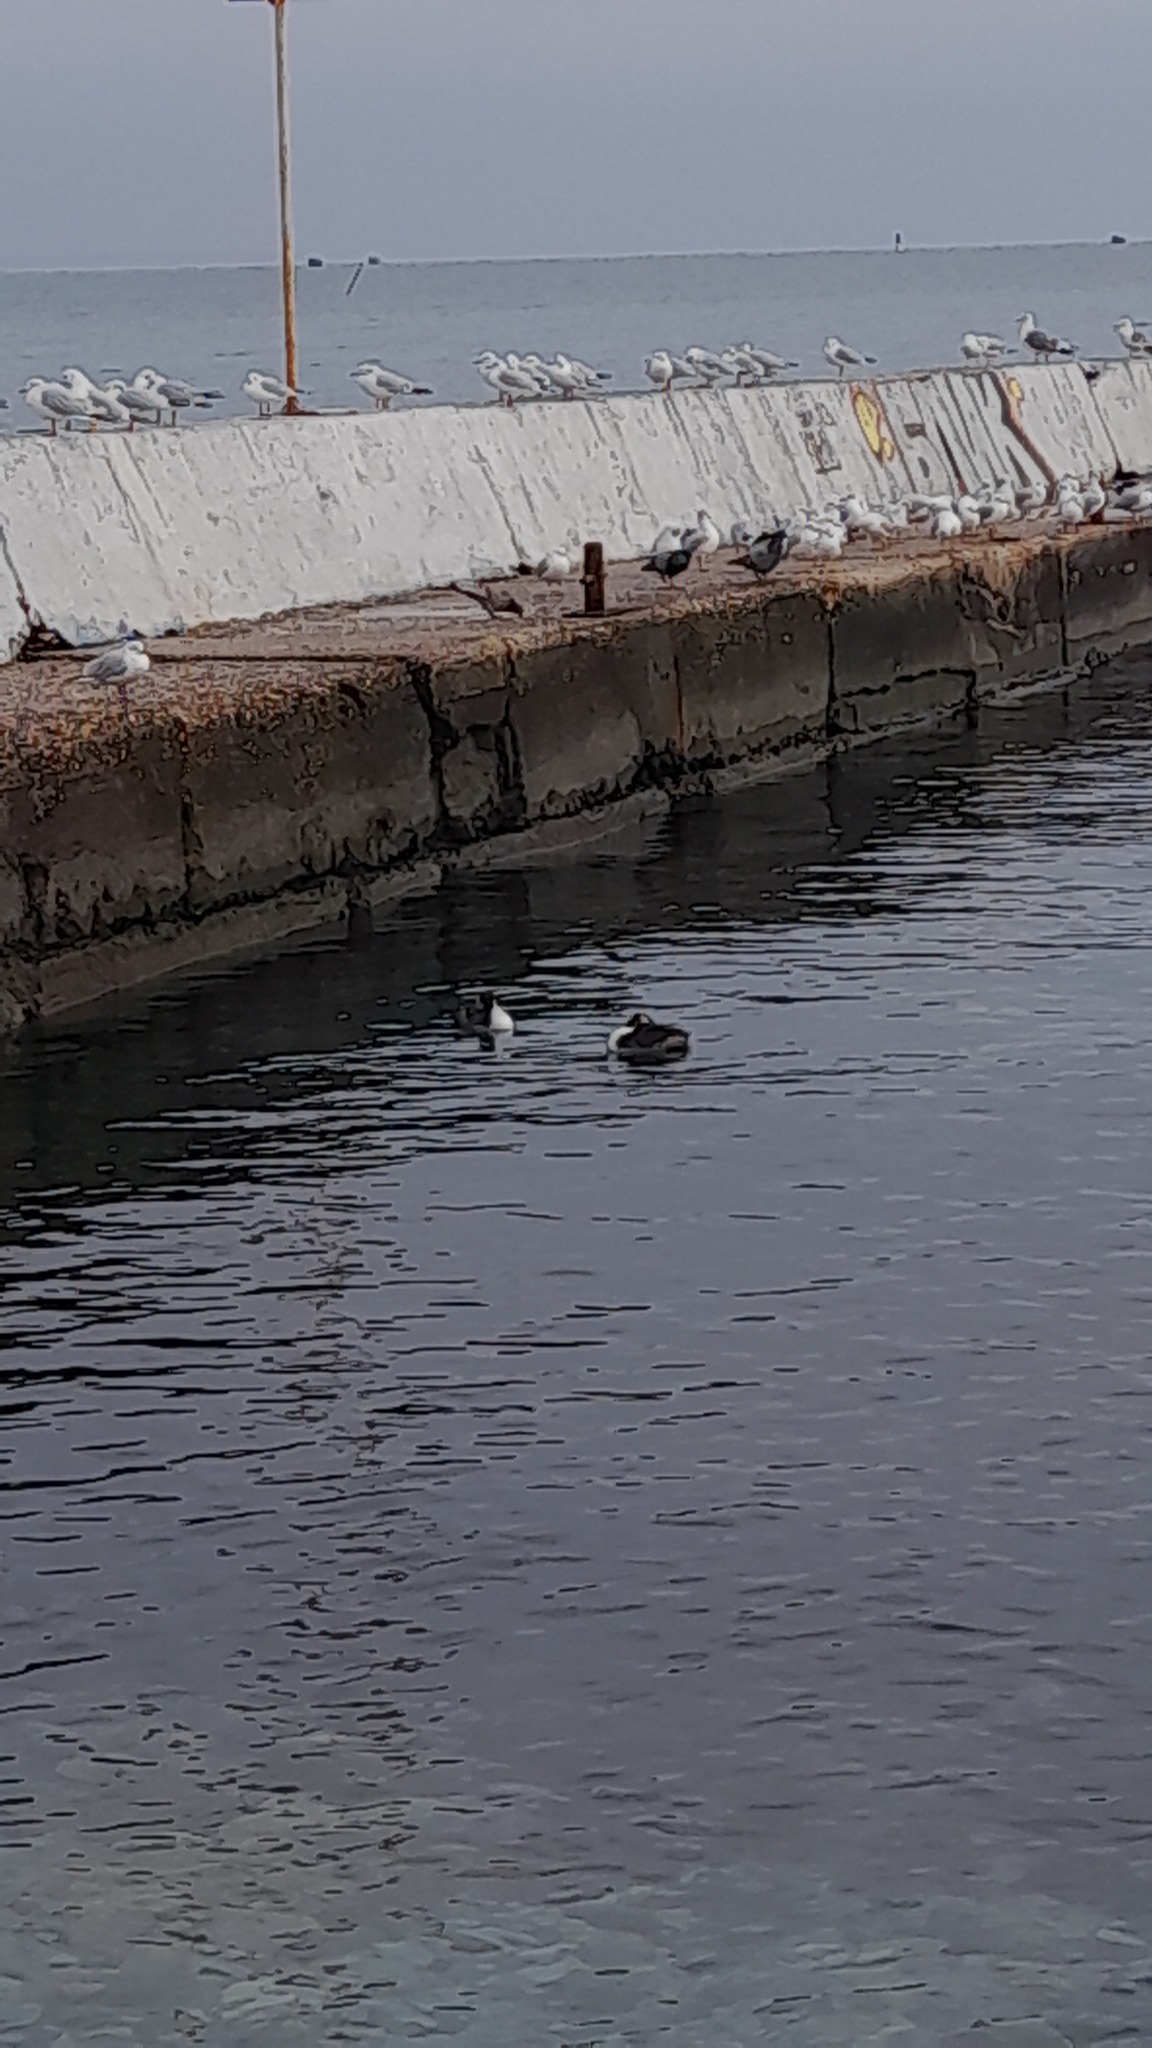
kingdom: Animalia
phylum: Chordata
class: Aves
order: Podicipediformes
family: Podicipedidae
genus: Podiceps
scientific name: Podiceps cristatus
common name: Great crested grebe
